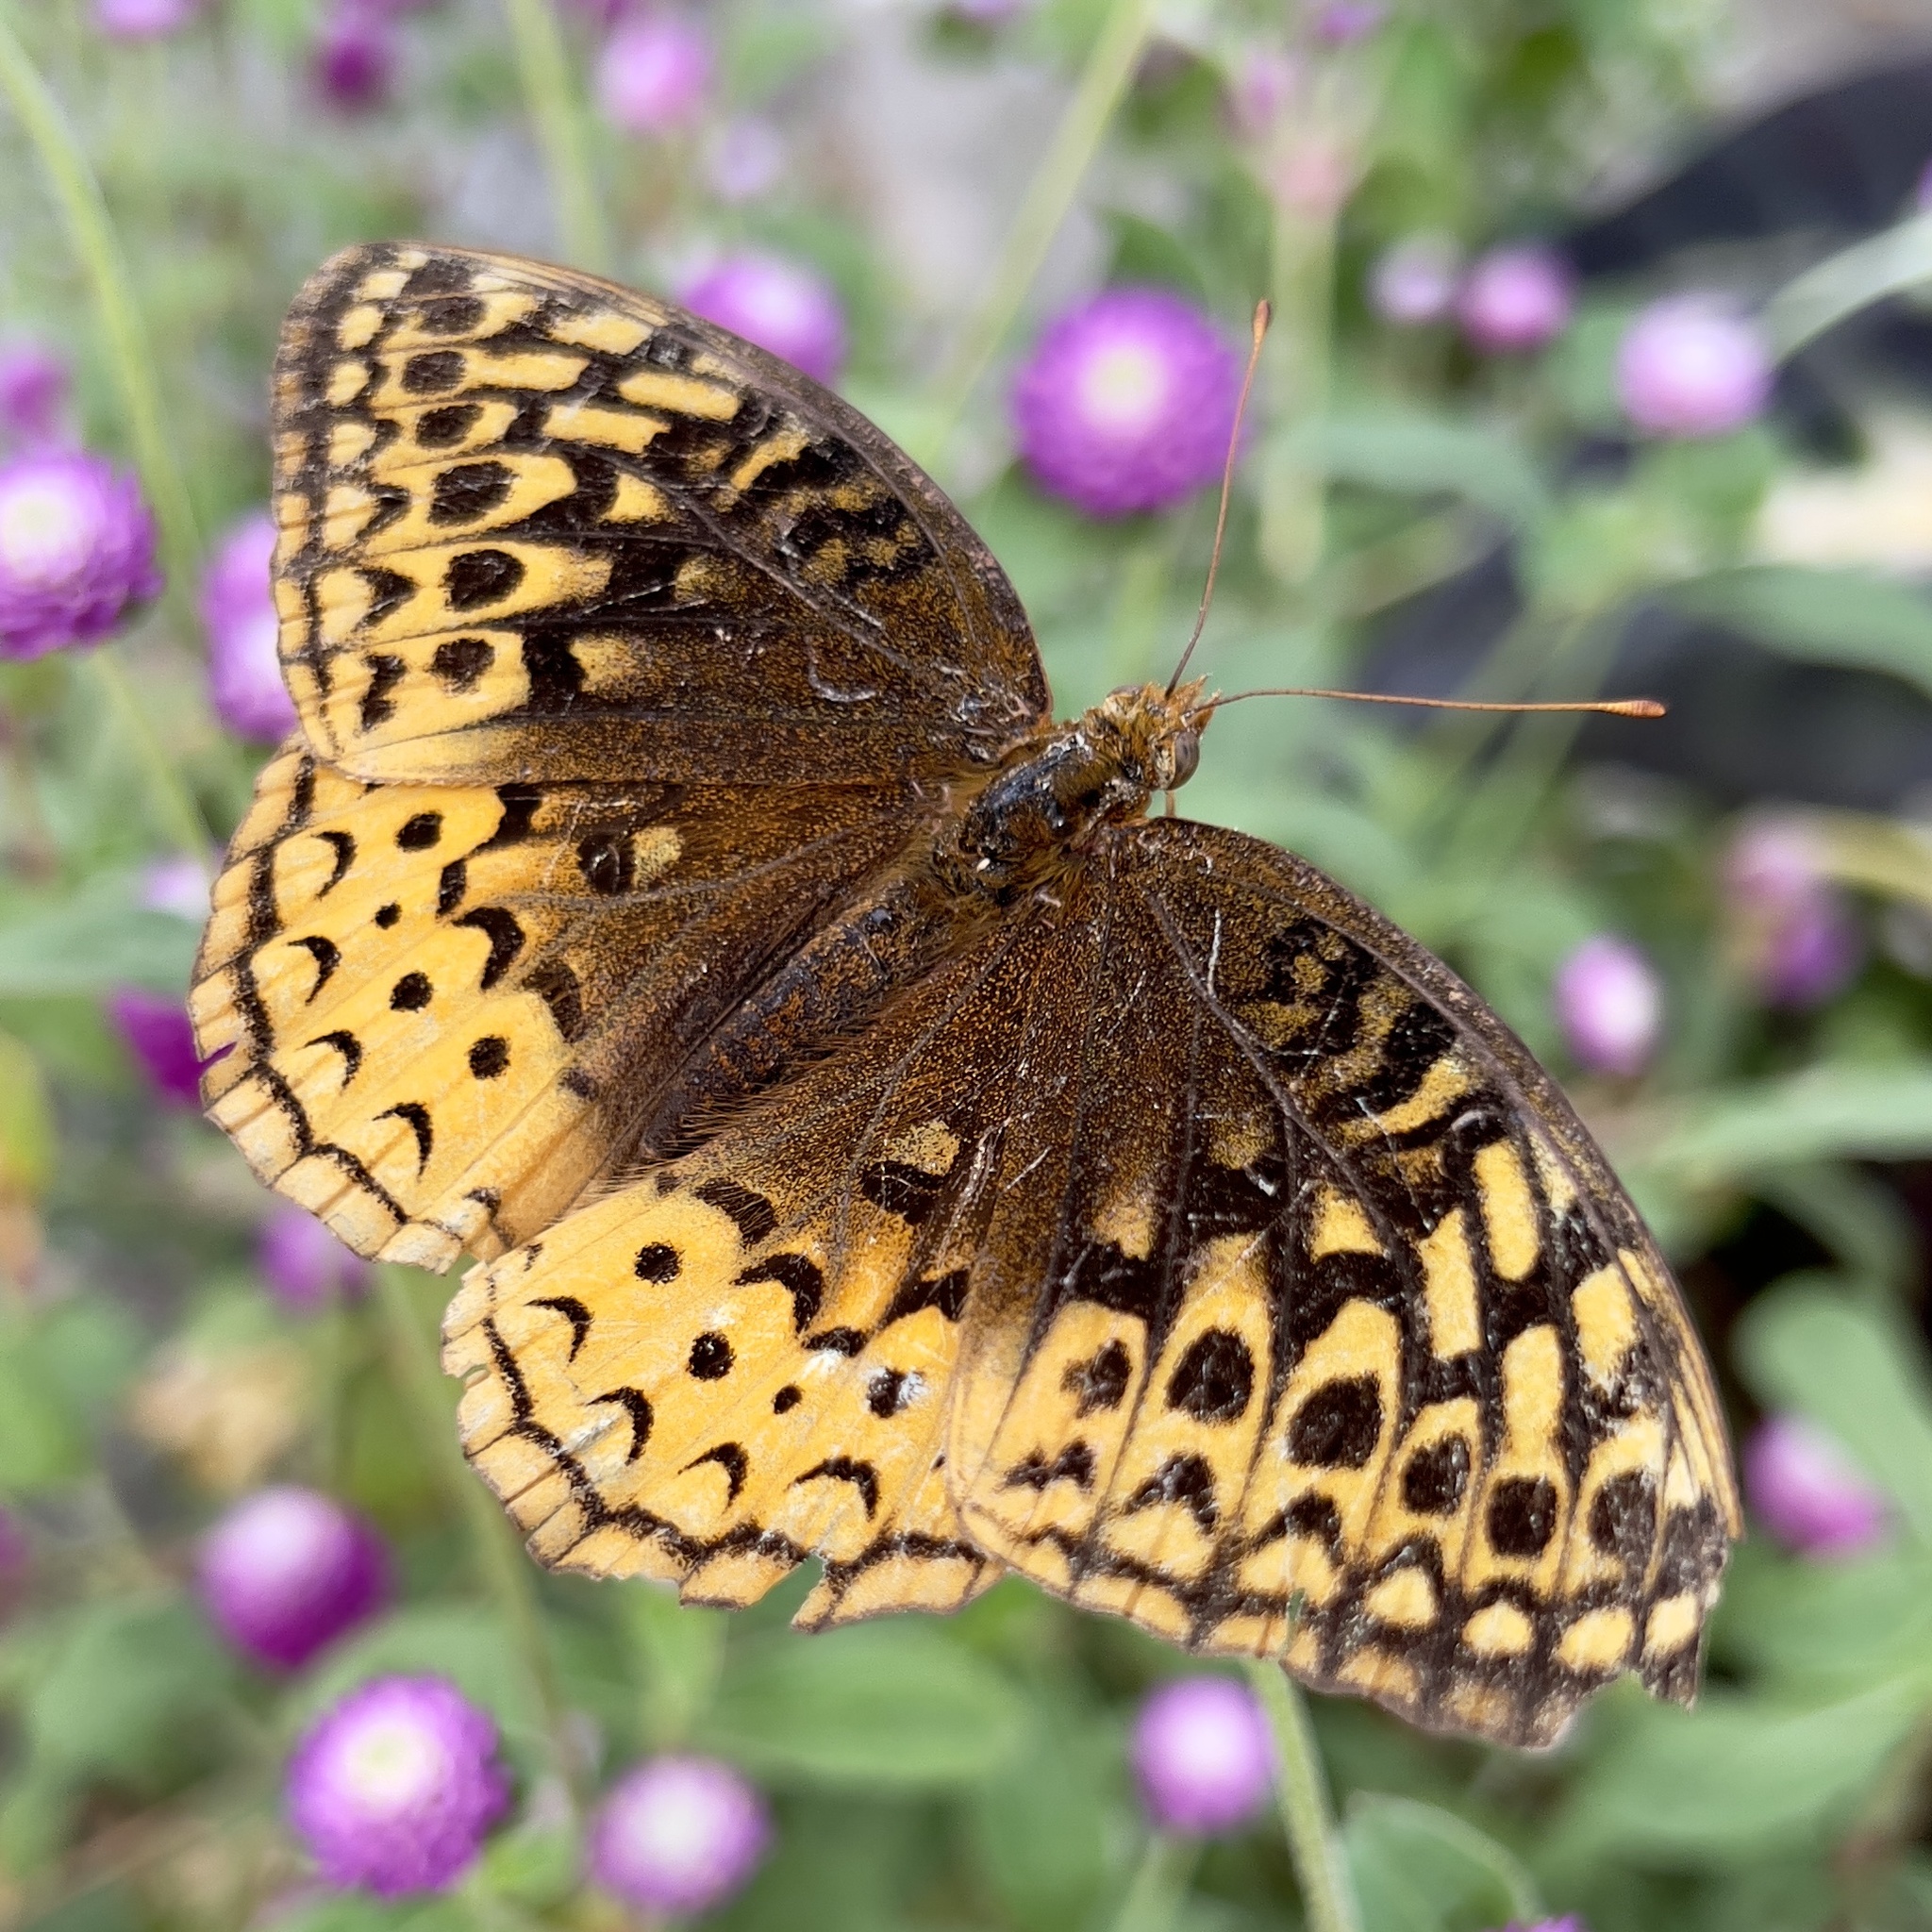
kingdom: Animalia
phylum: Arthropoda
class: Insecta
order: Lepidoptera
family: Nymphalidae
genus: Speyeria
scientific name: Speyeria cybele
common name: Great spangled fritillary
